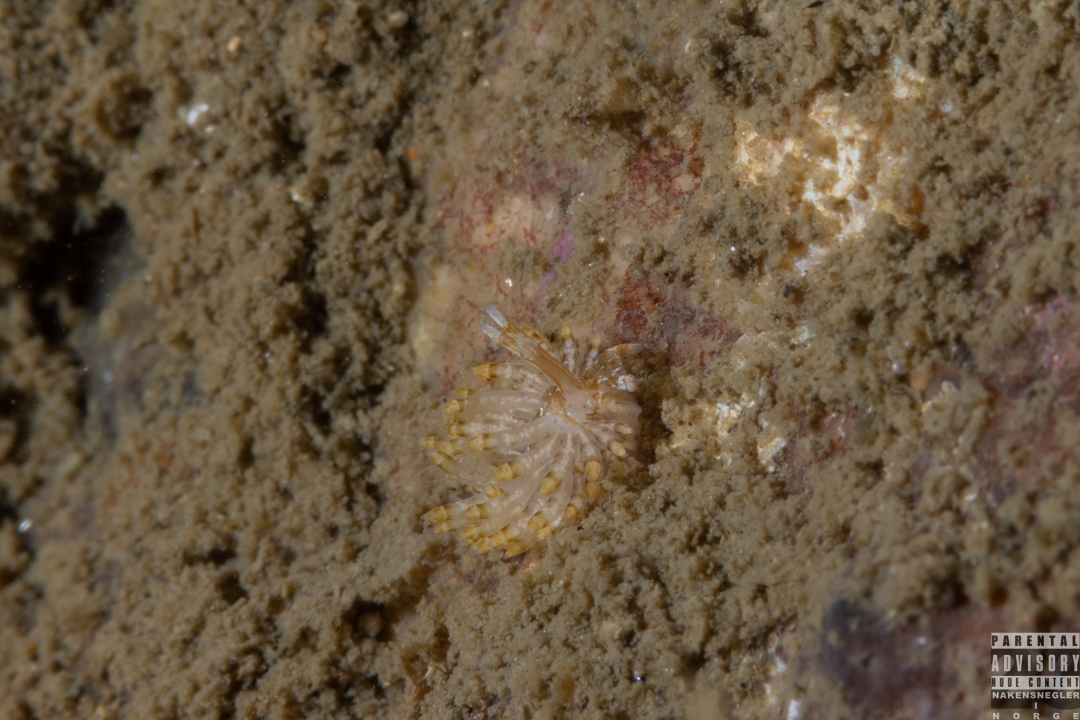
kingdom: Animalia
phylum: Mollusca
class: Gastropoda
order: Nudibranchia
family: Eubranchidae
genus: Eubranchus
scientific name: Eubranchus vittatus
